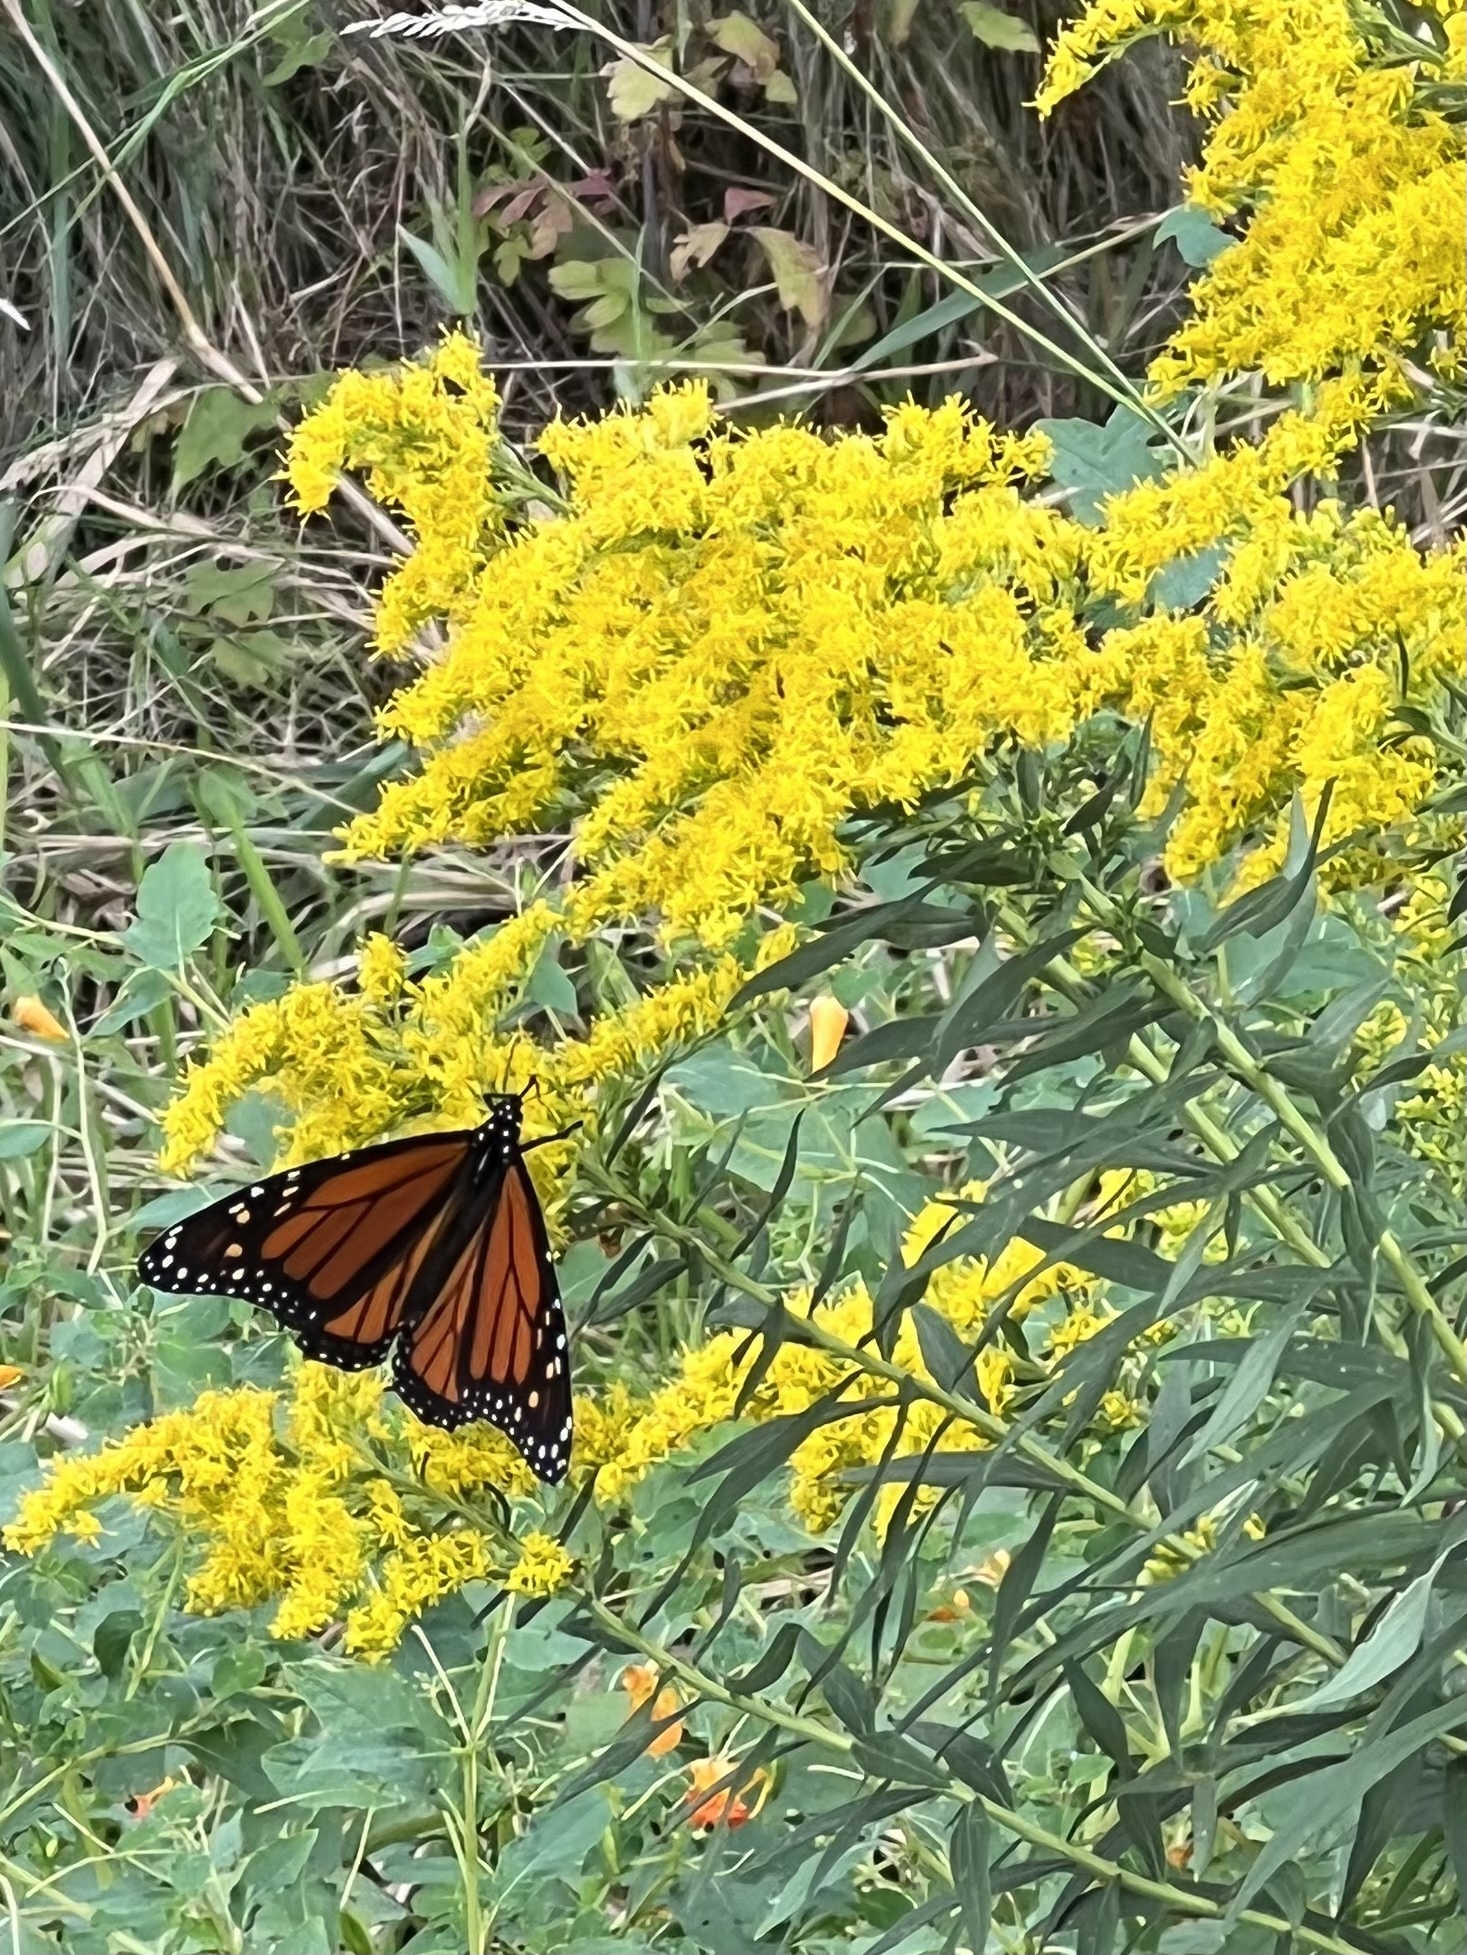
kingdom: Animalia
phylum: Arthropoda
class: Insecta
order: Lepidoptera
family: Nymphalidae
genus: Danaus
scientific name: Danaus plexippus
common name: Monarch
